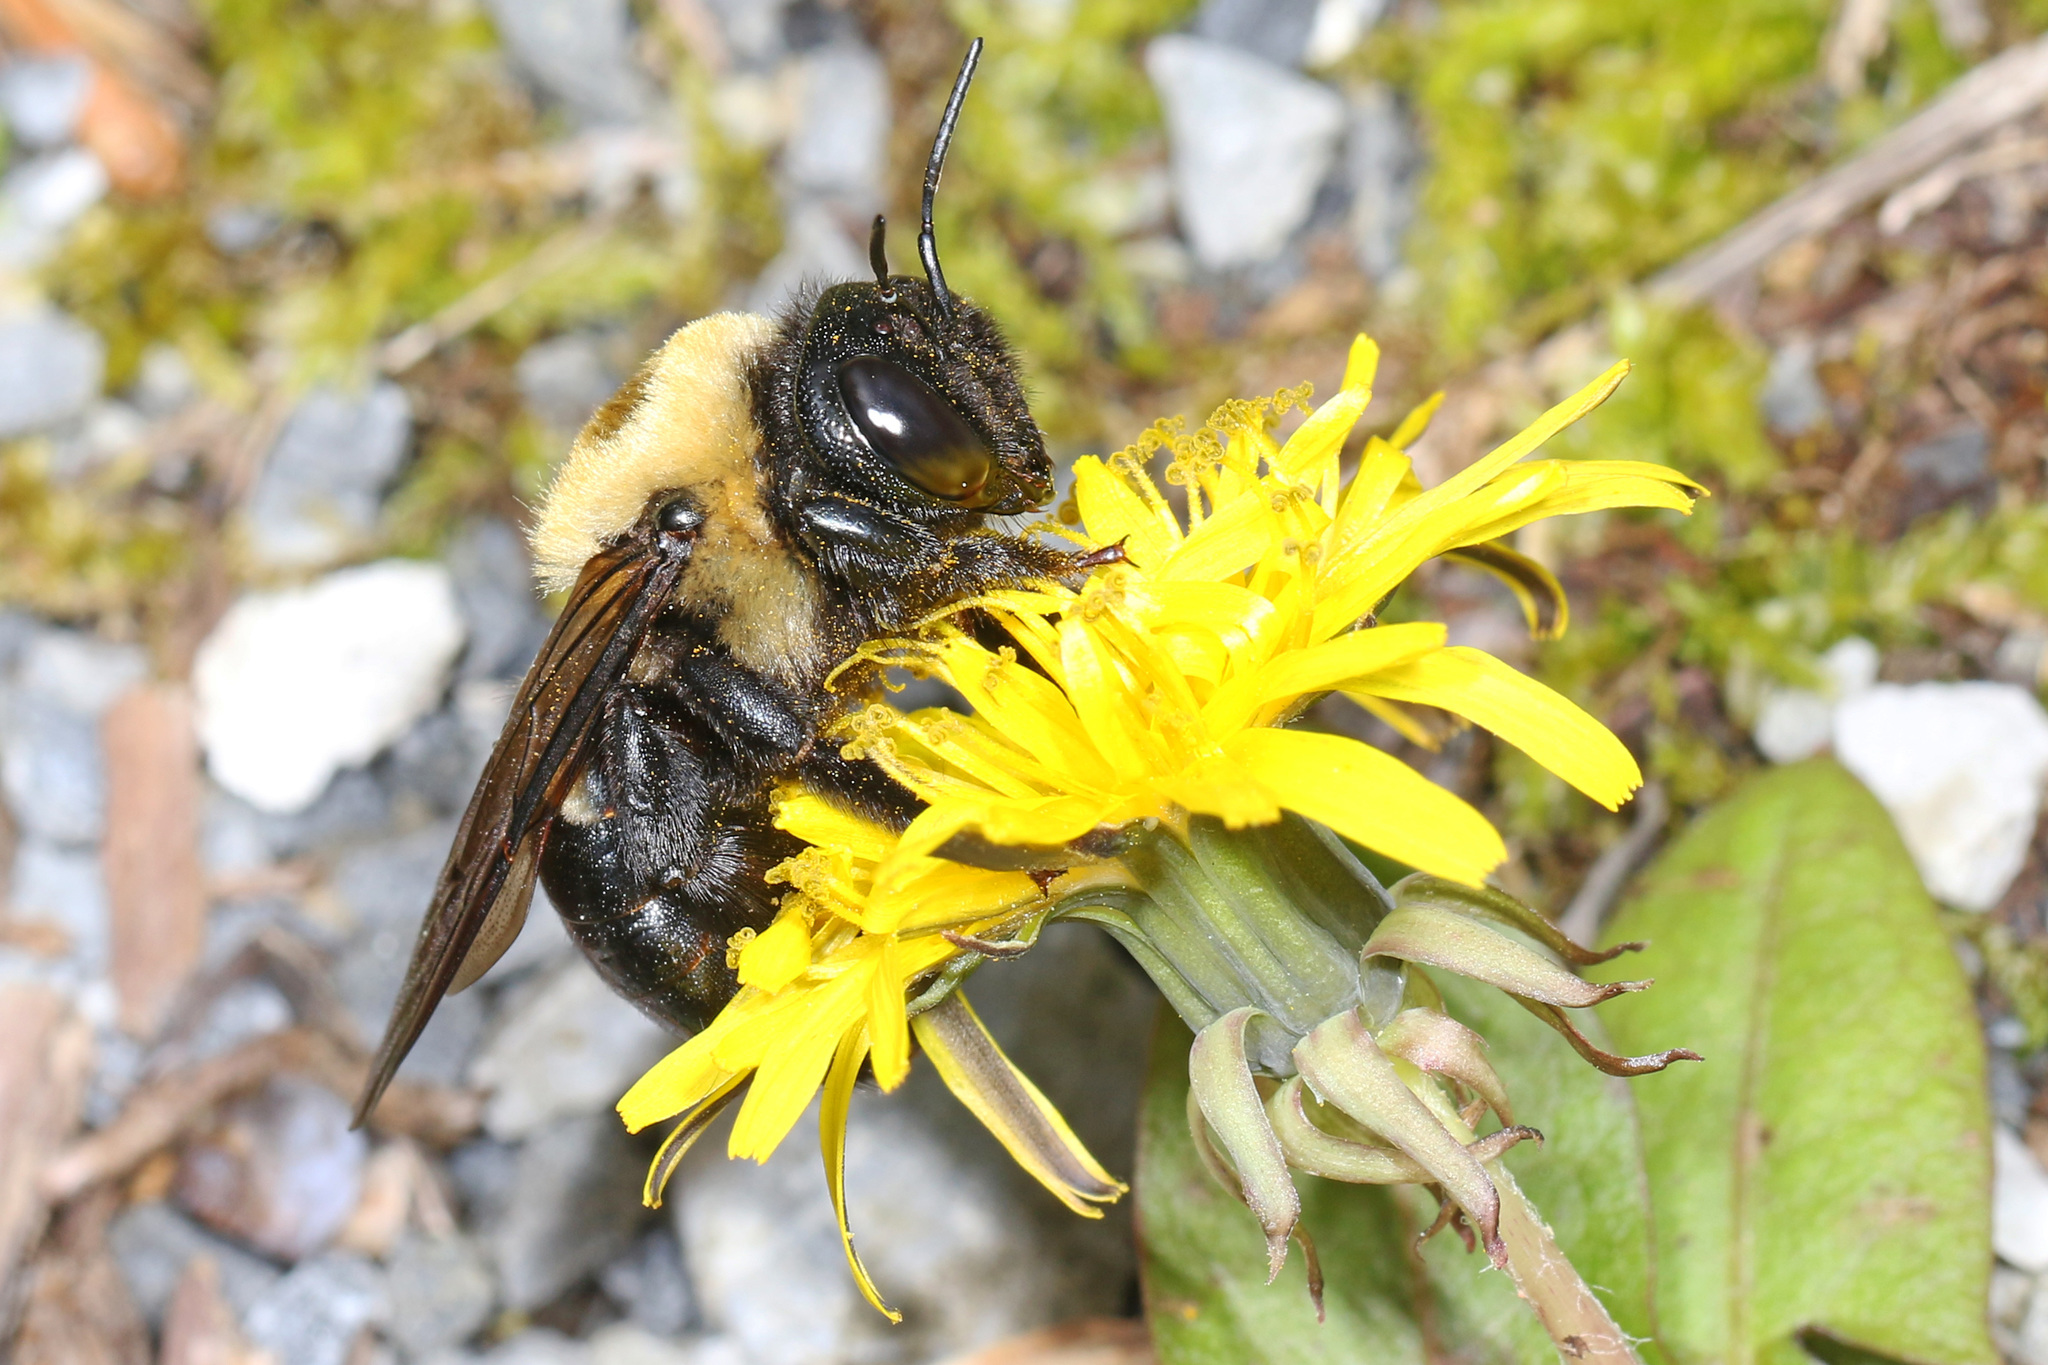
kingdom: Animalia
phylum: Arthropoda
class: Insecta
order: Hymenoptera
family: Apidae
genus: Xylocopa
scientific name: Xylocopa virginica
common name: Carpenter bee
